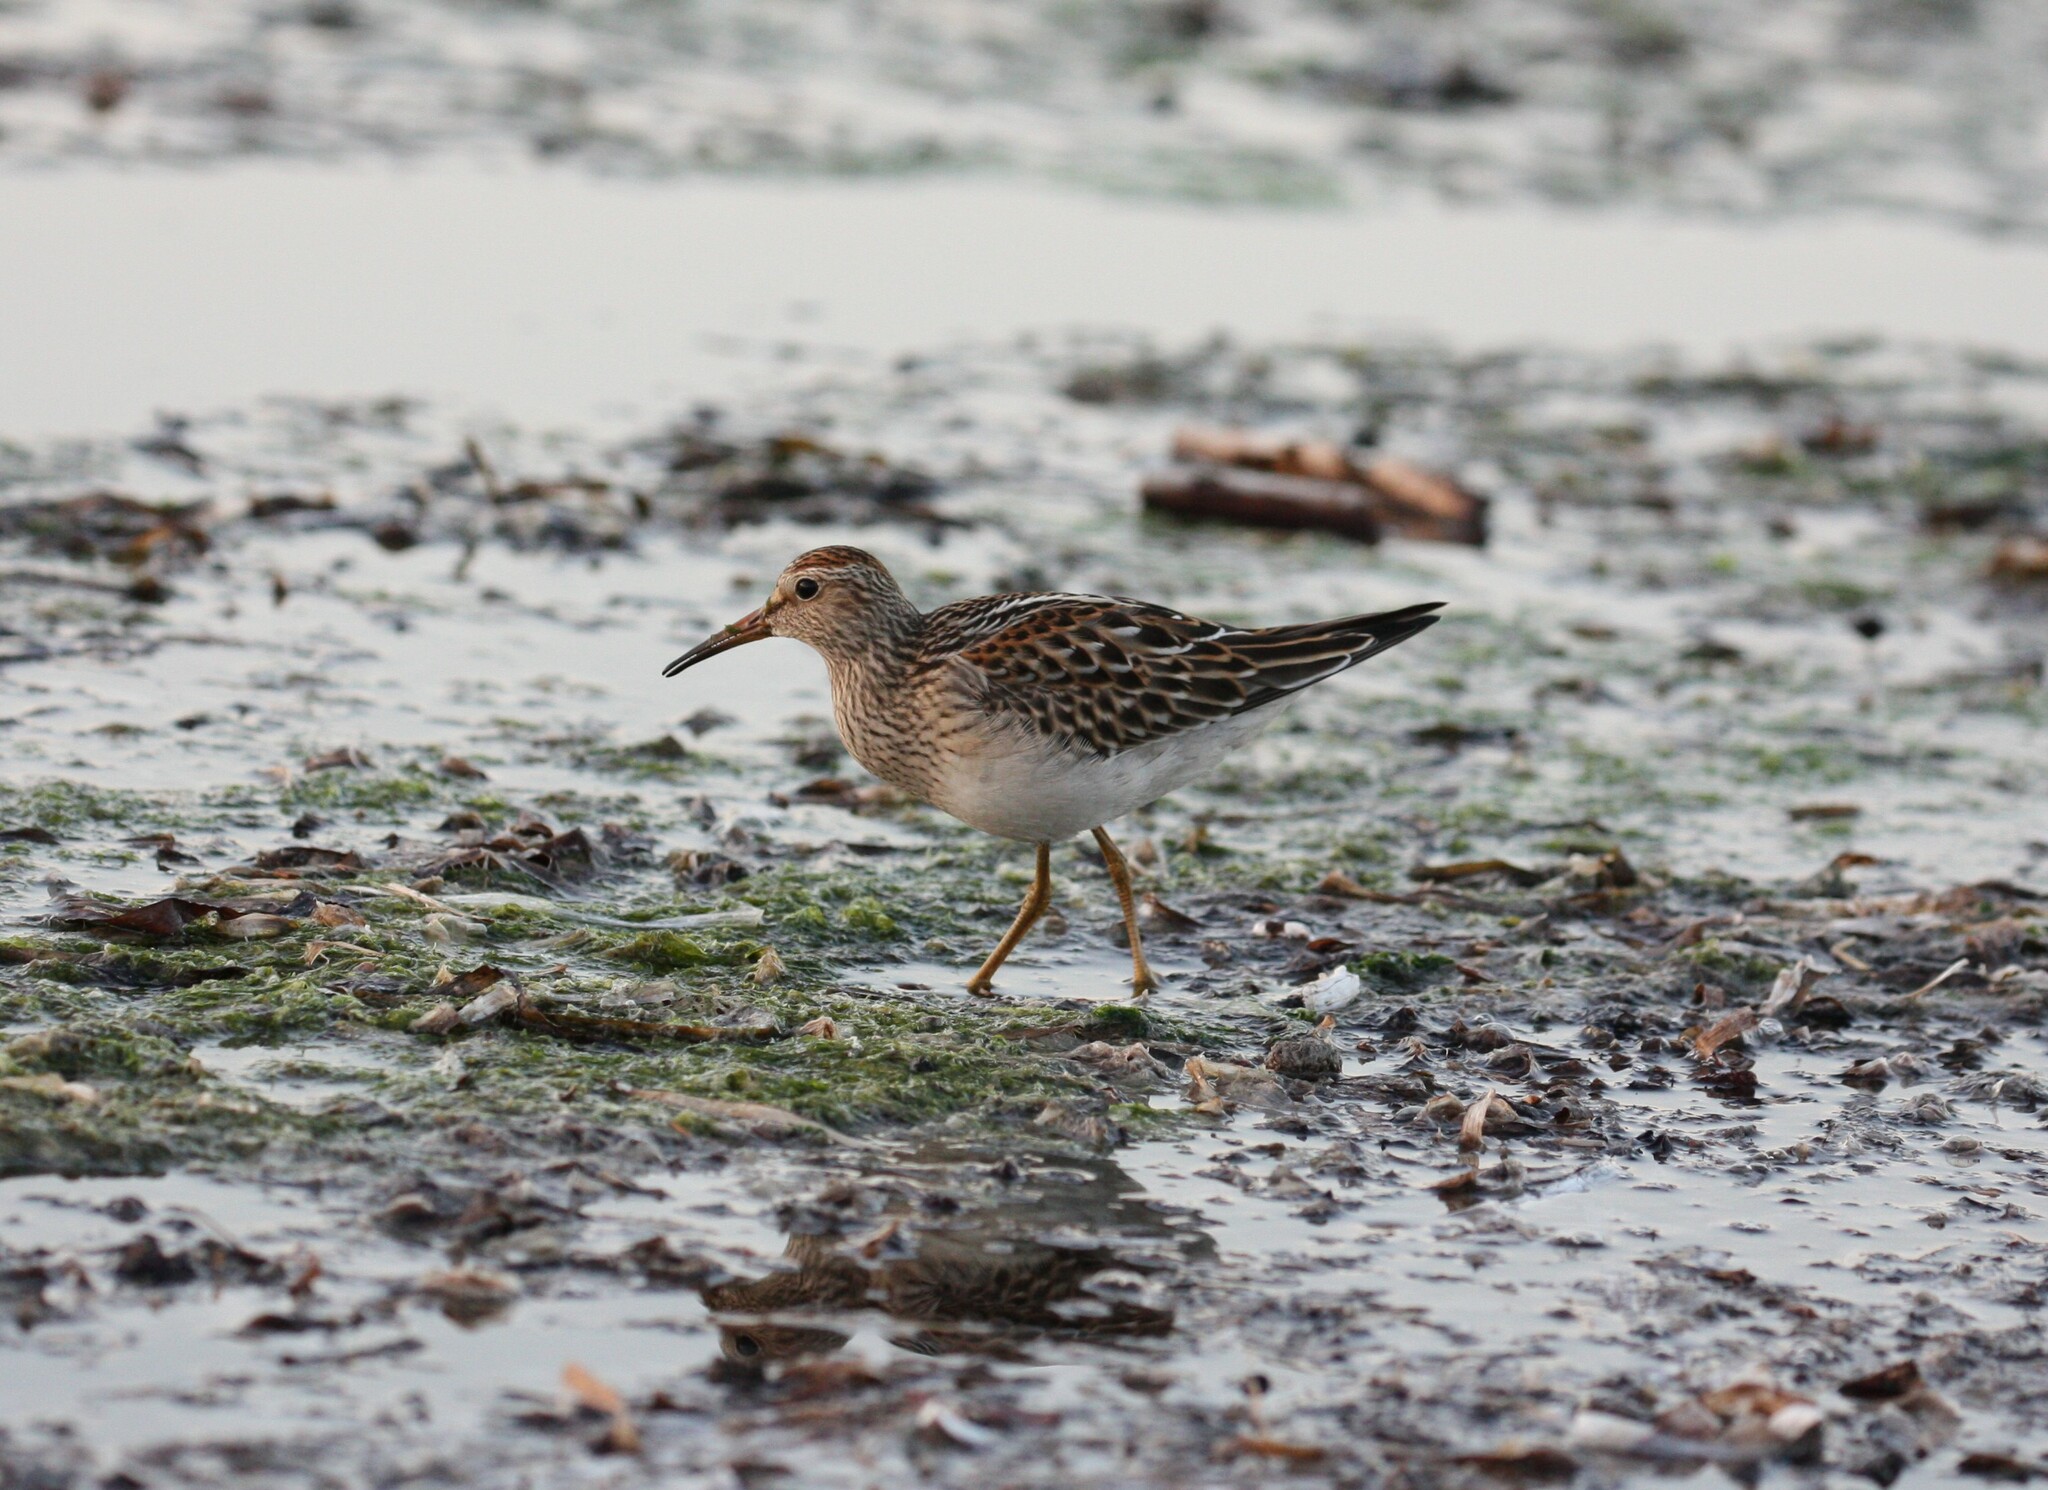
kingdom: Animalia
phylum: Chordata
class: Aves
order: Charadriiformes
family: Scolopacidae
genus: Calidris
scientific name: Calidris melanotos
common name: Pectoral sandpiper
